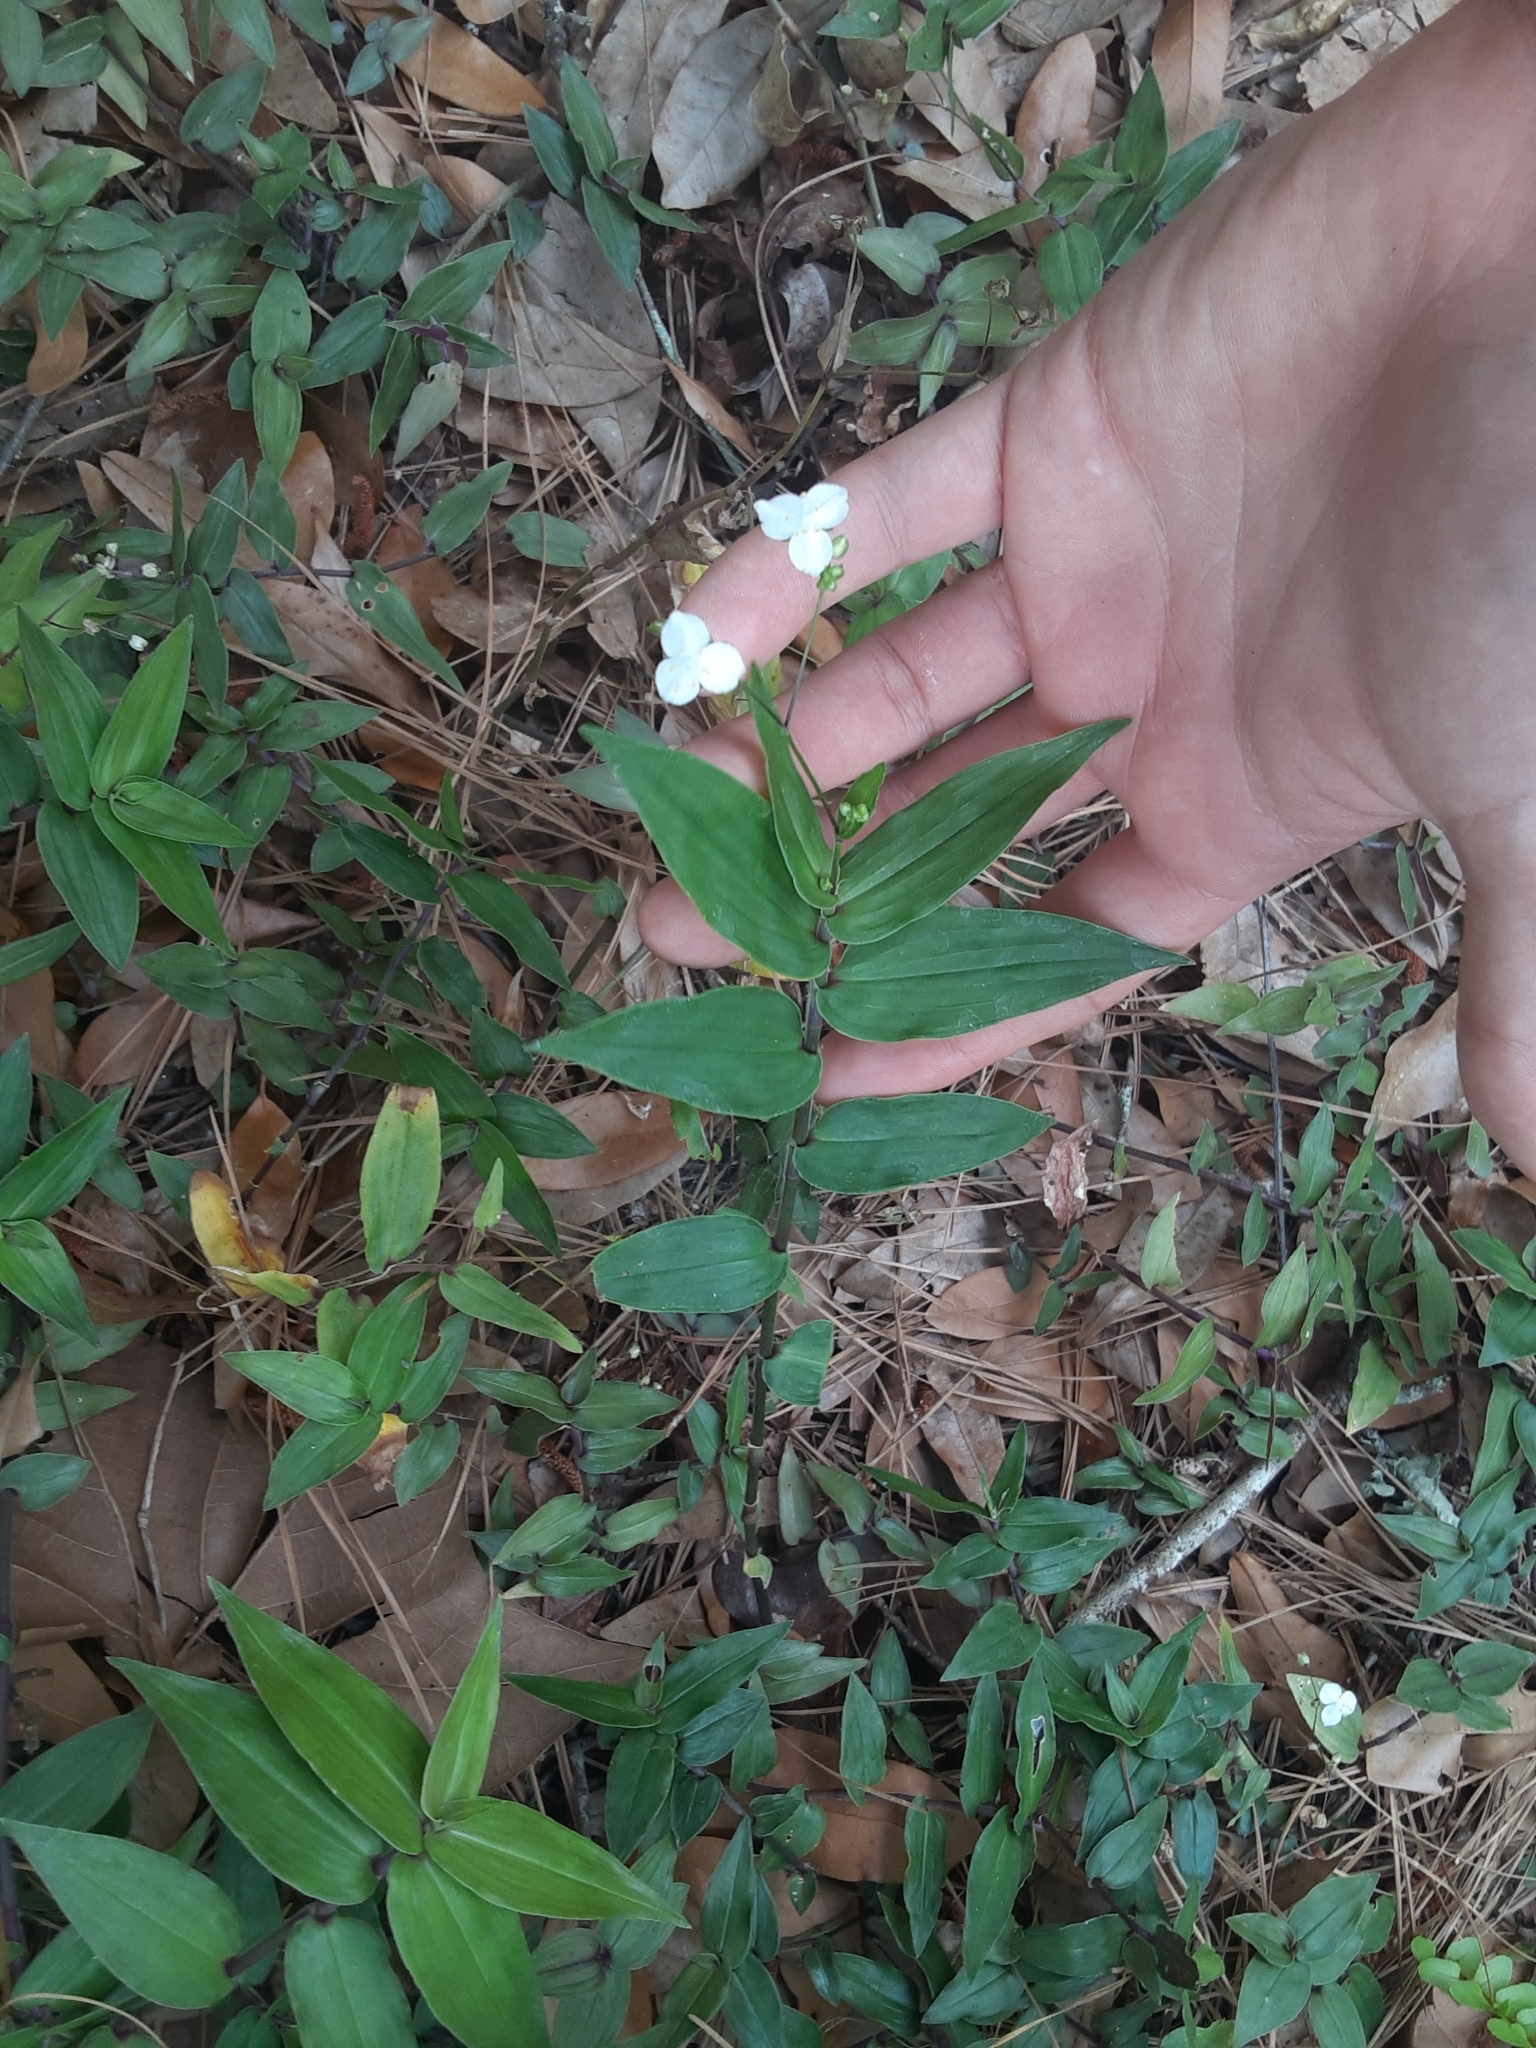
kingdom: Plantae
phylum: Tracheophyta
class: Liliopsida
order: Commelinales
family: Commelinaceae
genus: Gibasis
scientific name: Gibasis pellucida
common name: Dotted bridalveil
